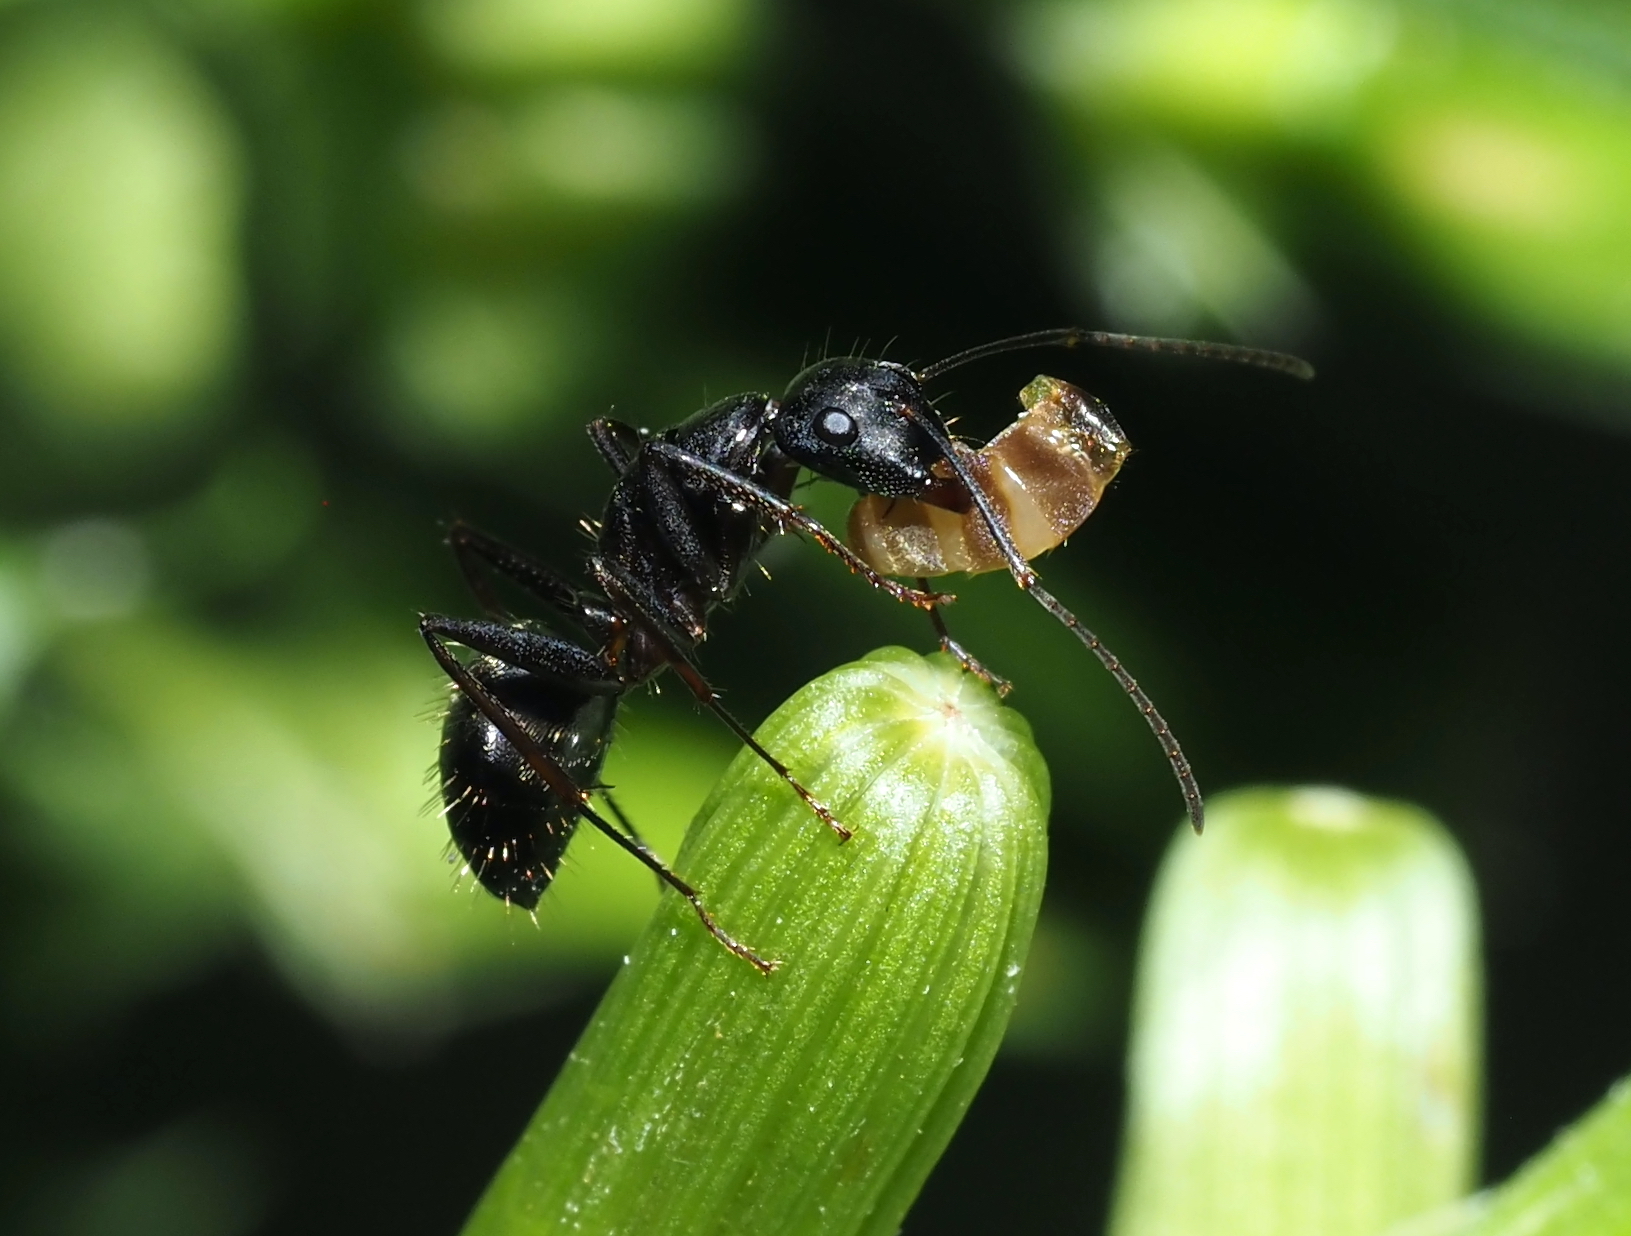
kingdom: Animalia
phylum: Arthropoda
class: Insecta
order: Hymenoptera
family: Formicidae
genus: Camponotus
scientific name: Camponotus pennsylvanicus
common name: Black carpenter ant
